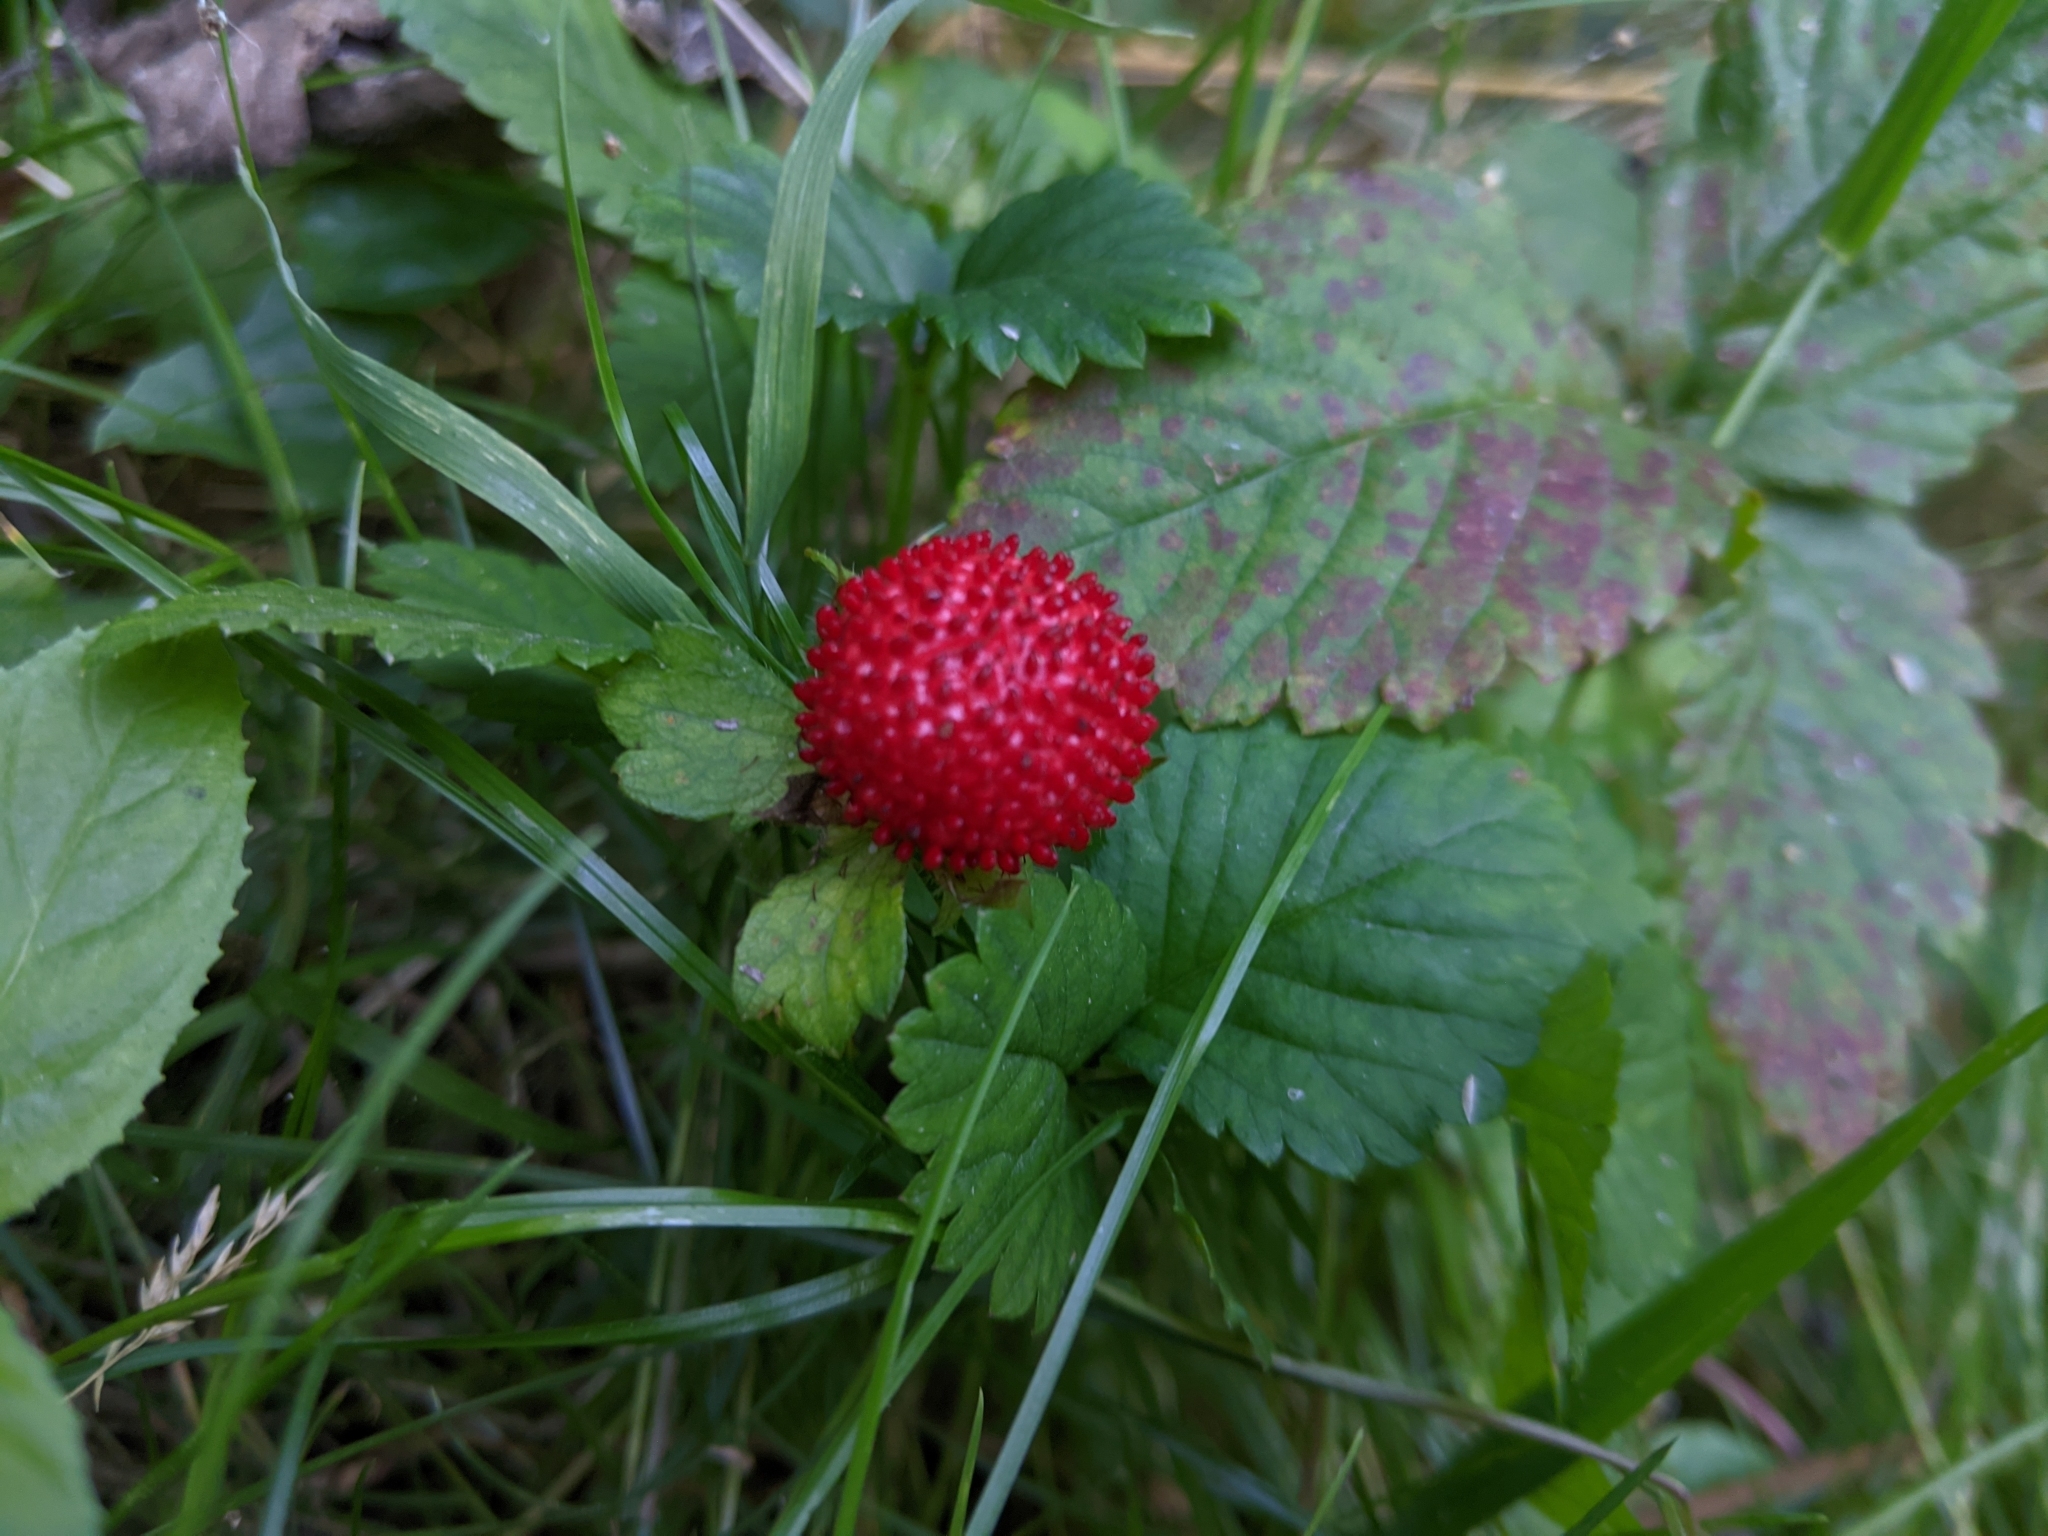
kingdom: Plantae
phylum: Tracheophyta
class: Magnoliopsida
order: Rosales
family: Rosaceae
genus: Potentilla
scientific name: Potentilla indica
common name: Yellow-flowered strawberry
